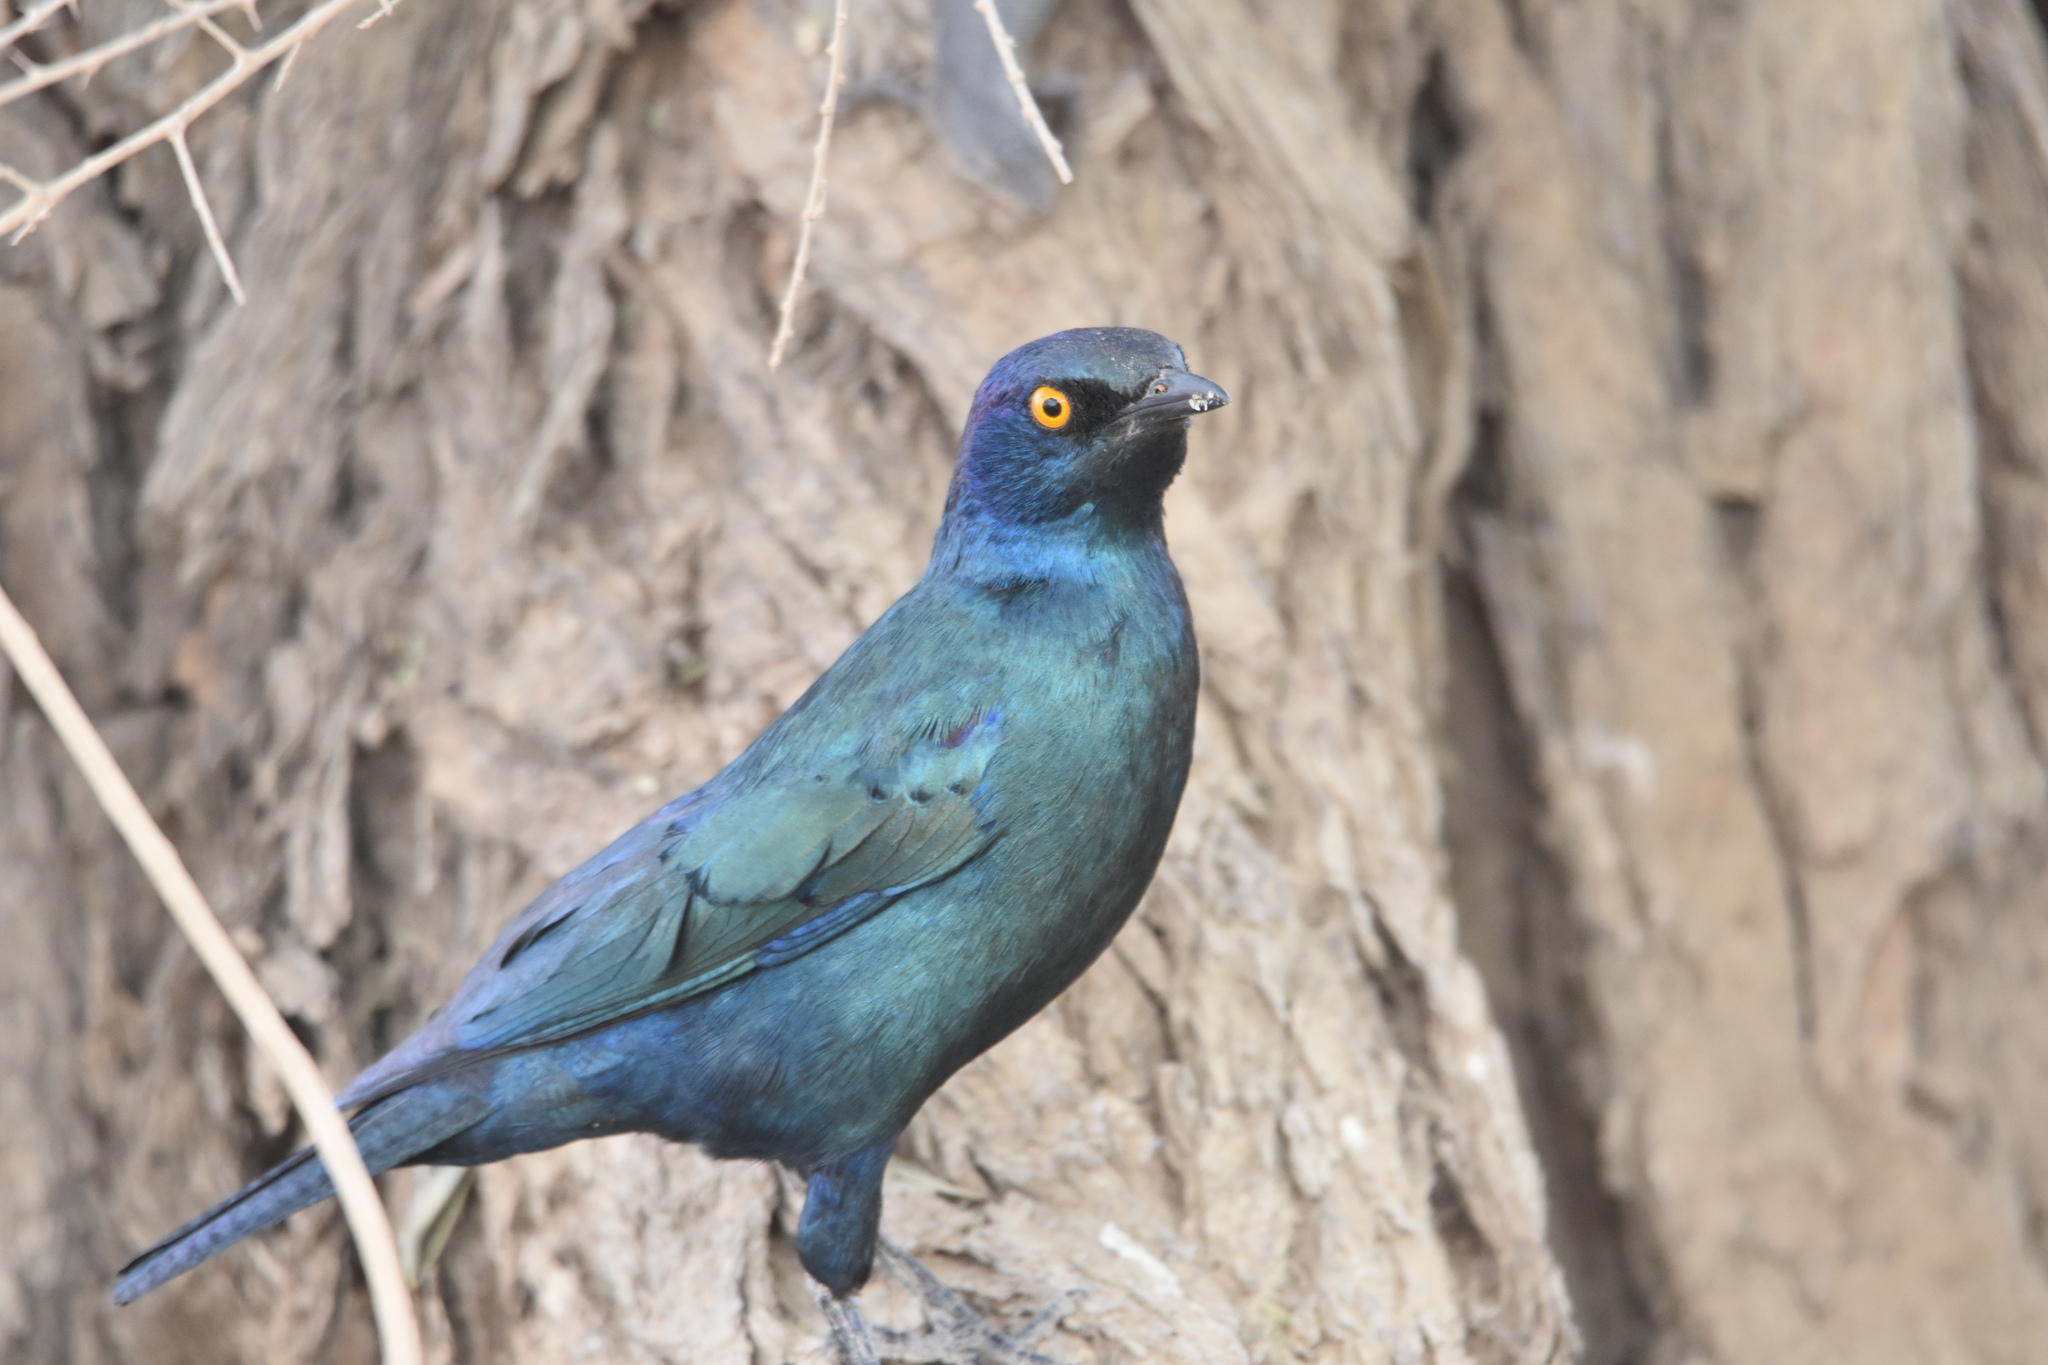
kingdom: Animalia
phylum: Chordata
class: Aves
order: Passeriformes
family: Sturnidae
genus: Lamprotornis
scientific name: Lamprotornis nitens
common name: Cape starling
